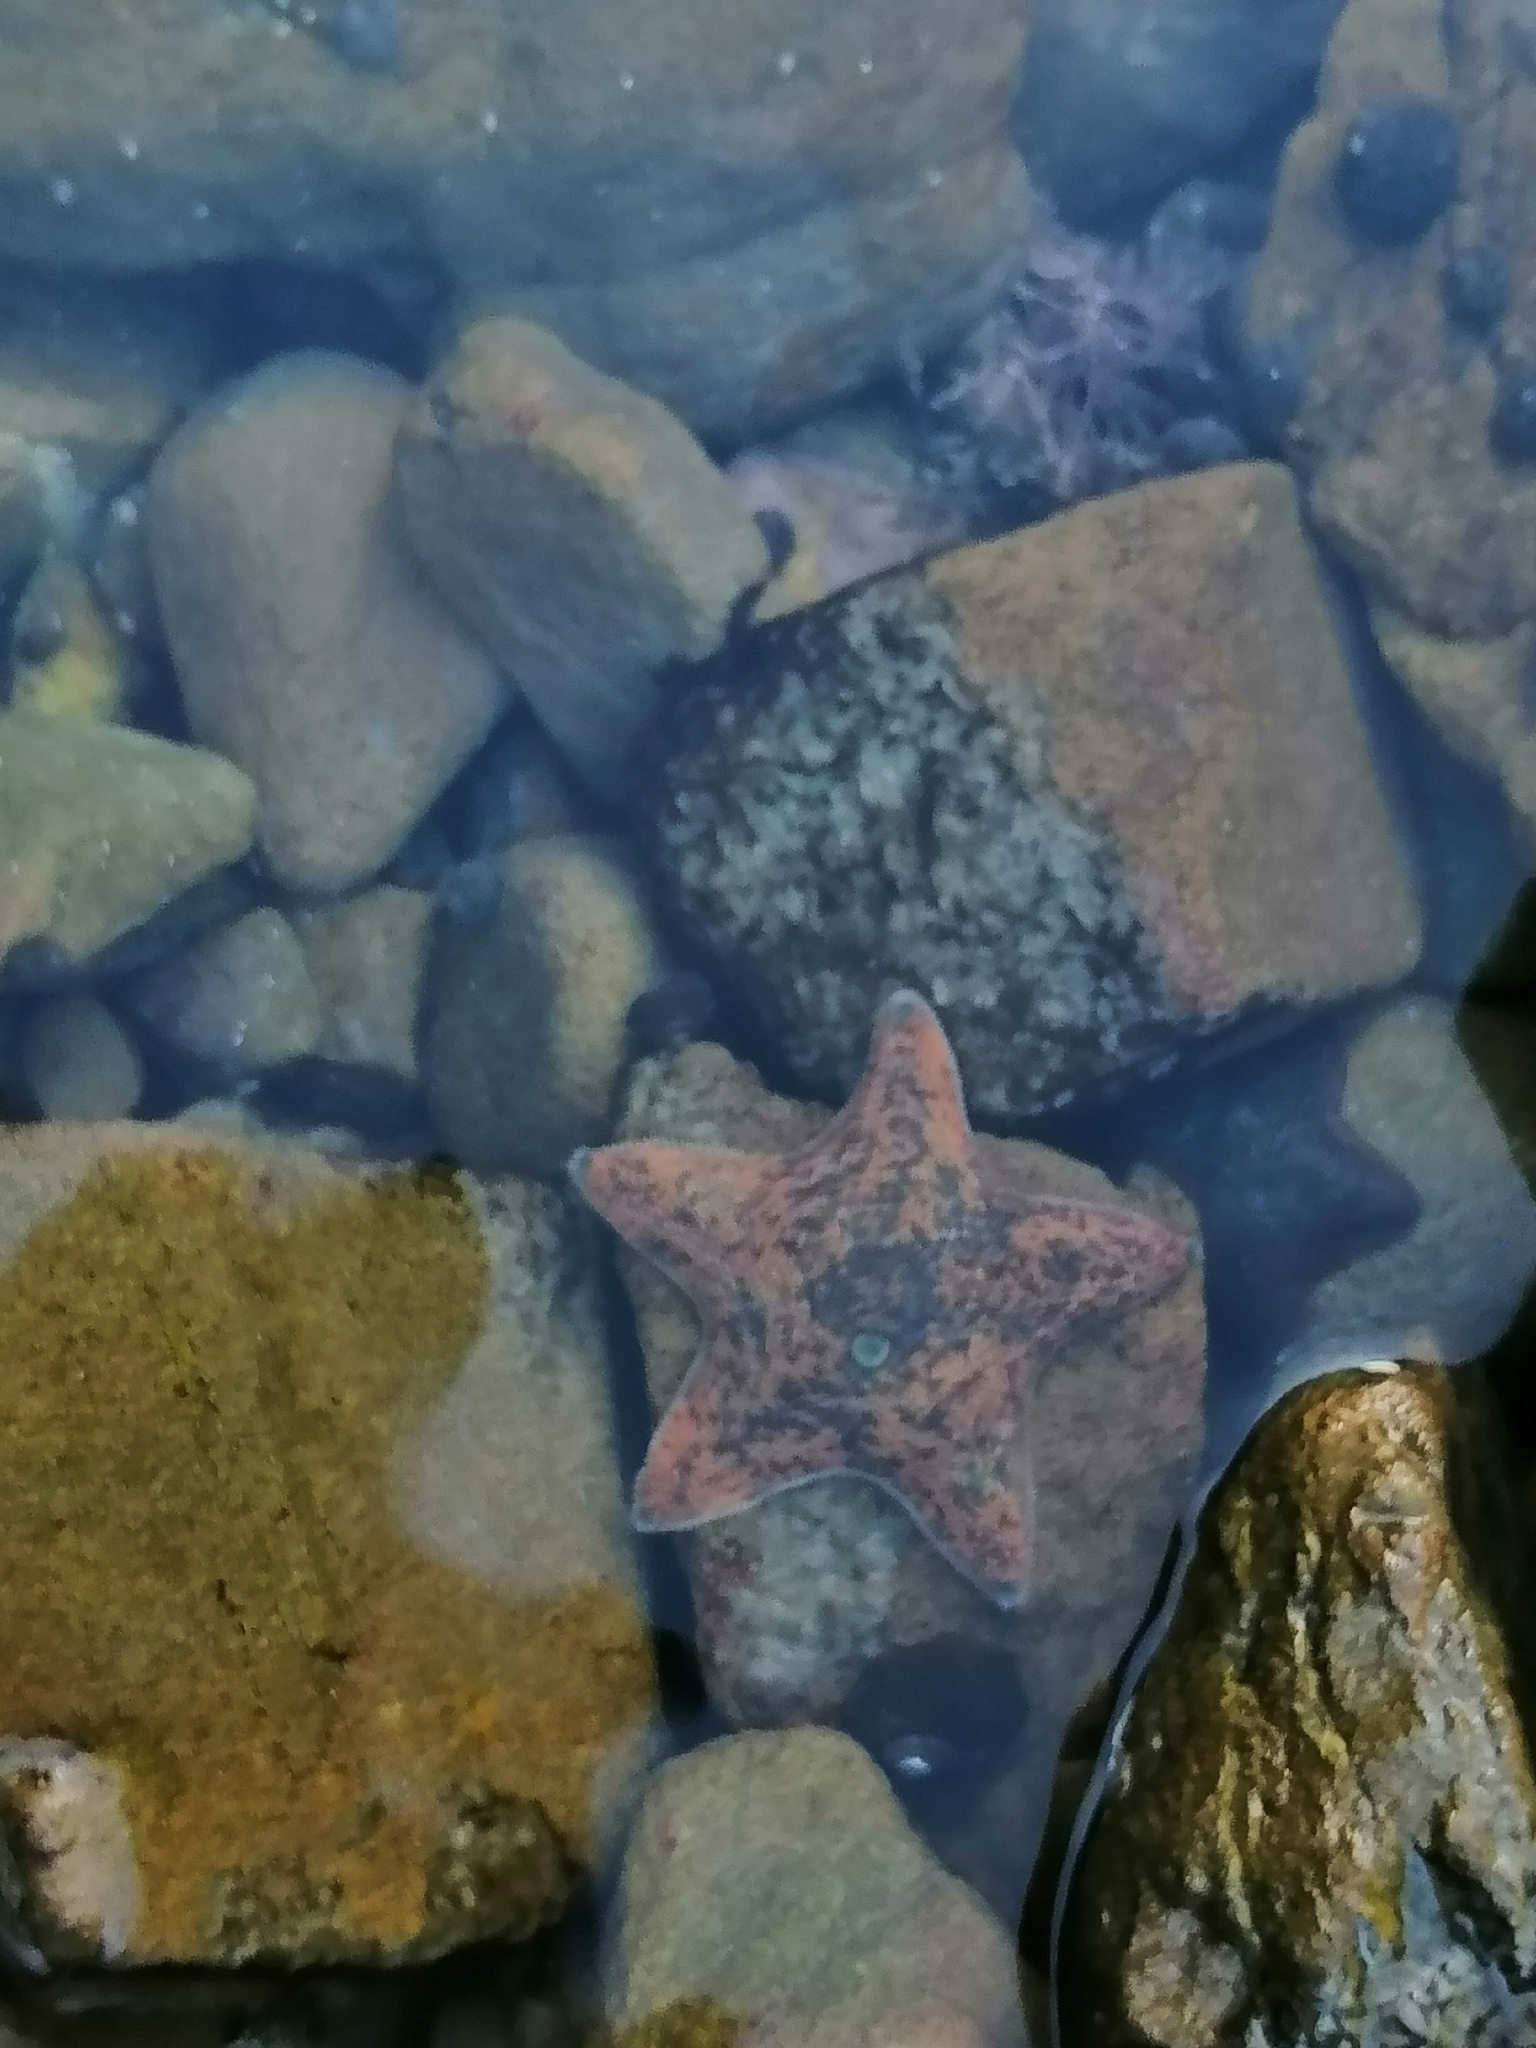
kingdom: Animalia
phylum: Echinodermata
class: Asteroidea
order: Valvatida
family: Asterinidae
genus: Patiriella
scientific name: Patiriella regularis
